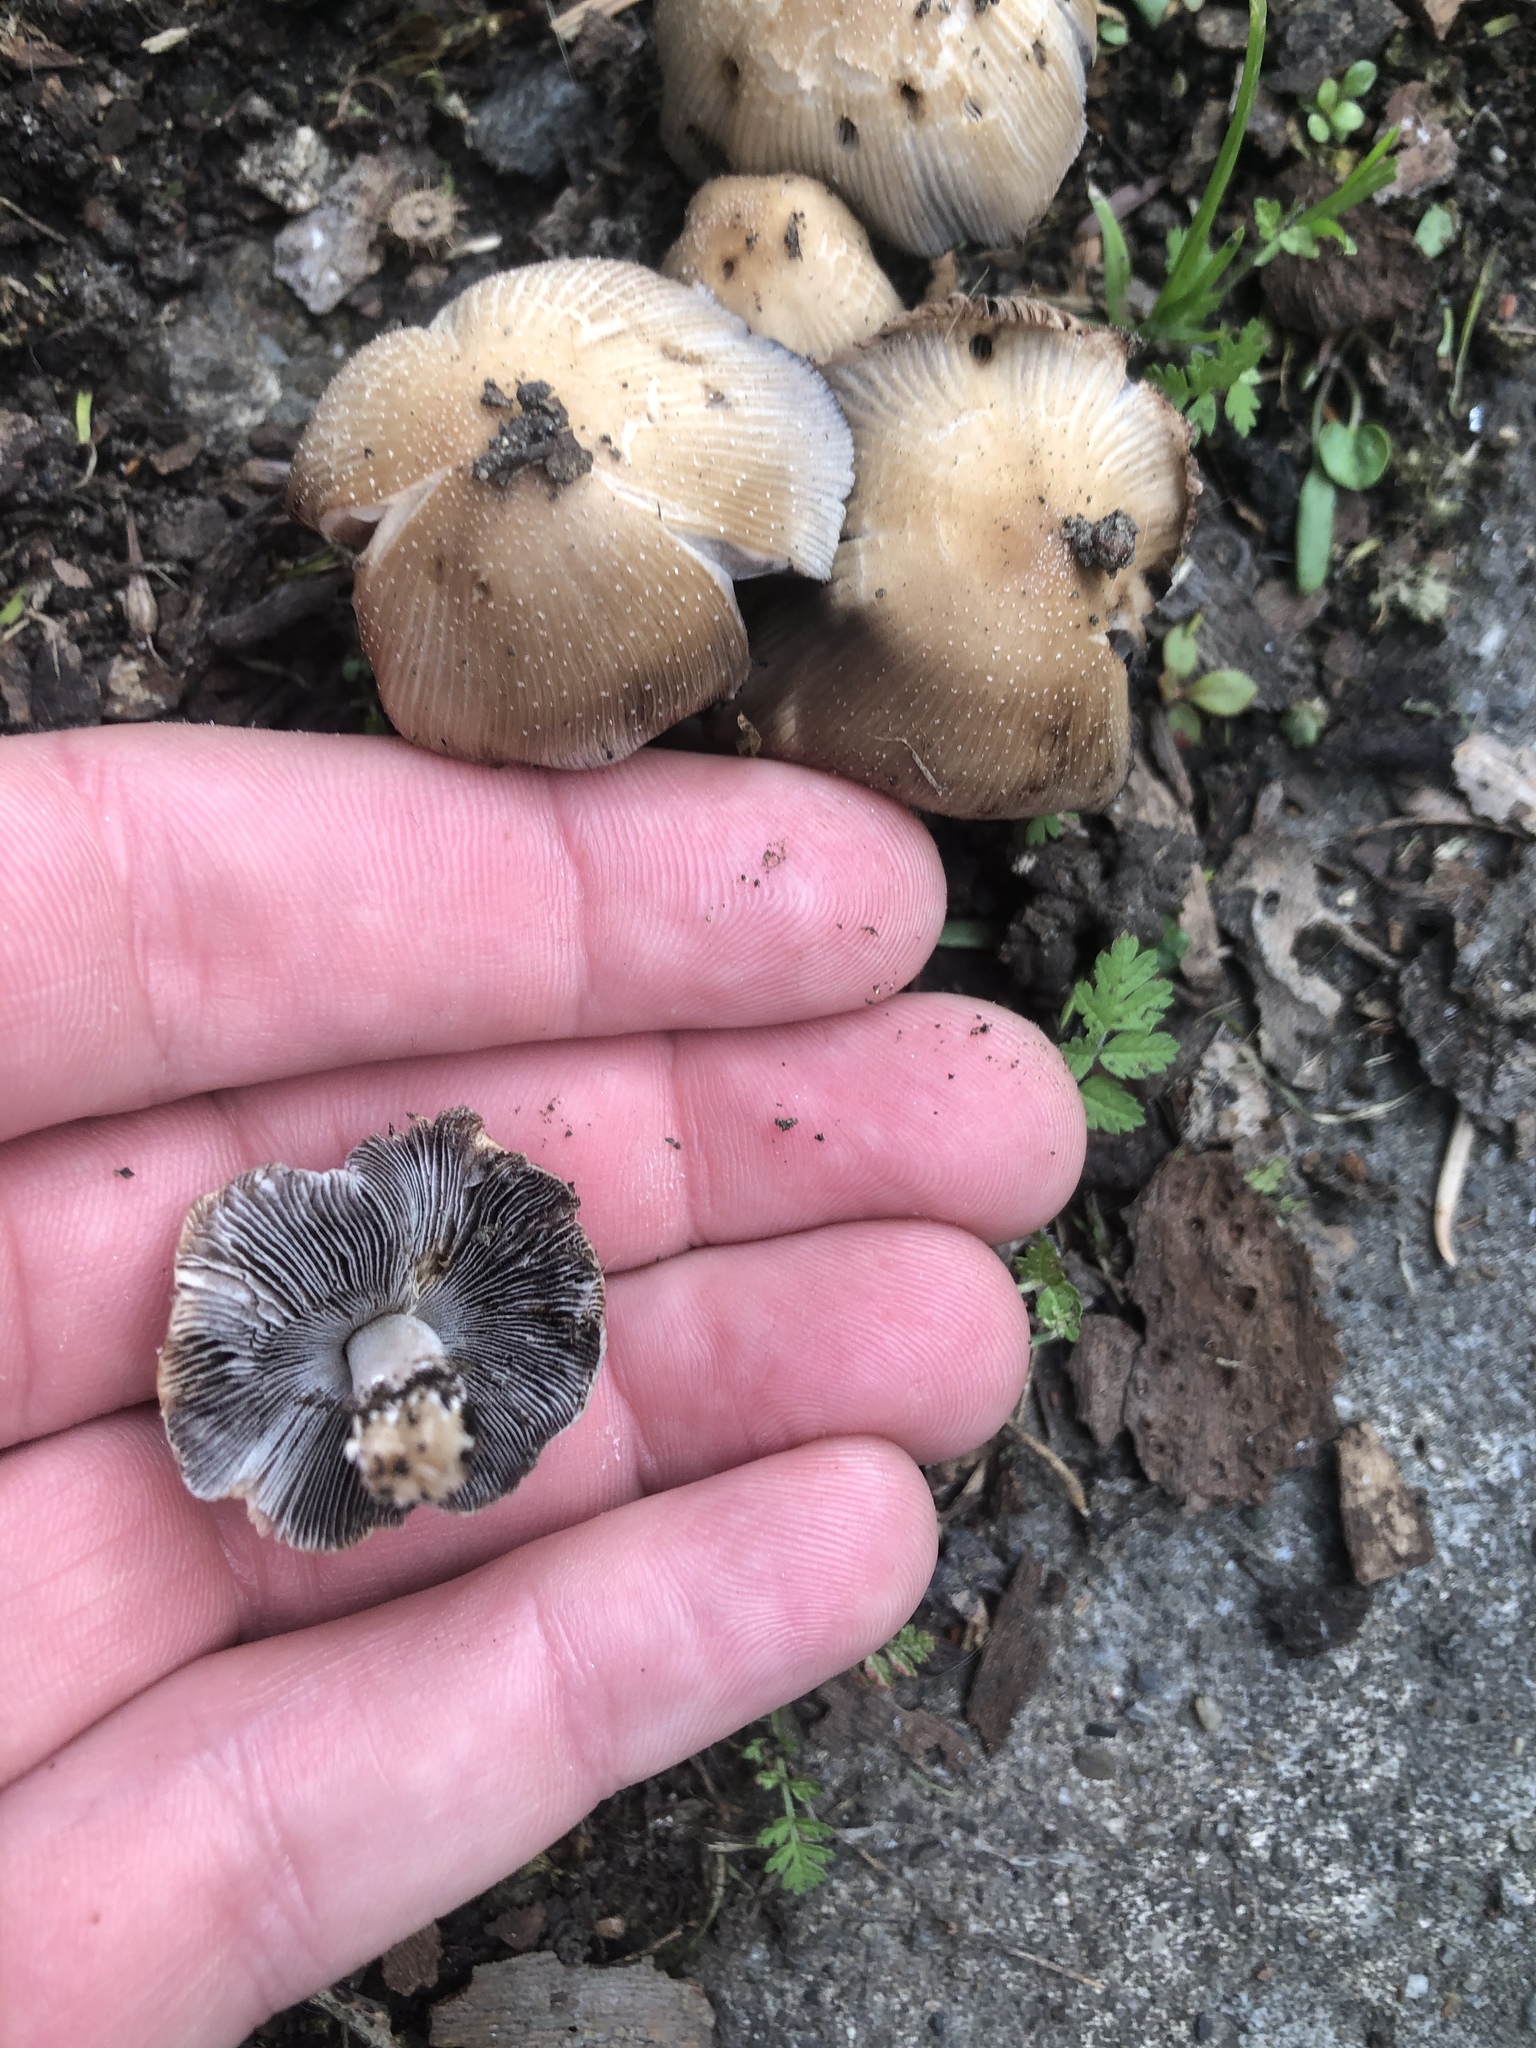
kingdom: Fungi
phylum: Basidiomycota
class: Agaricomycetes
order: Agaricales
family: Psathyrellaceae
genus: Coprinellus
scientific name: Coprinellus micaceus
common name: Glistening ink-cap
